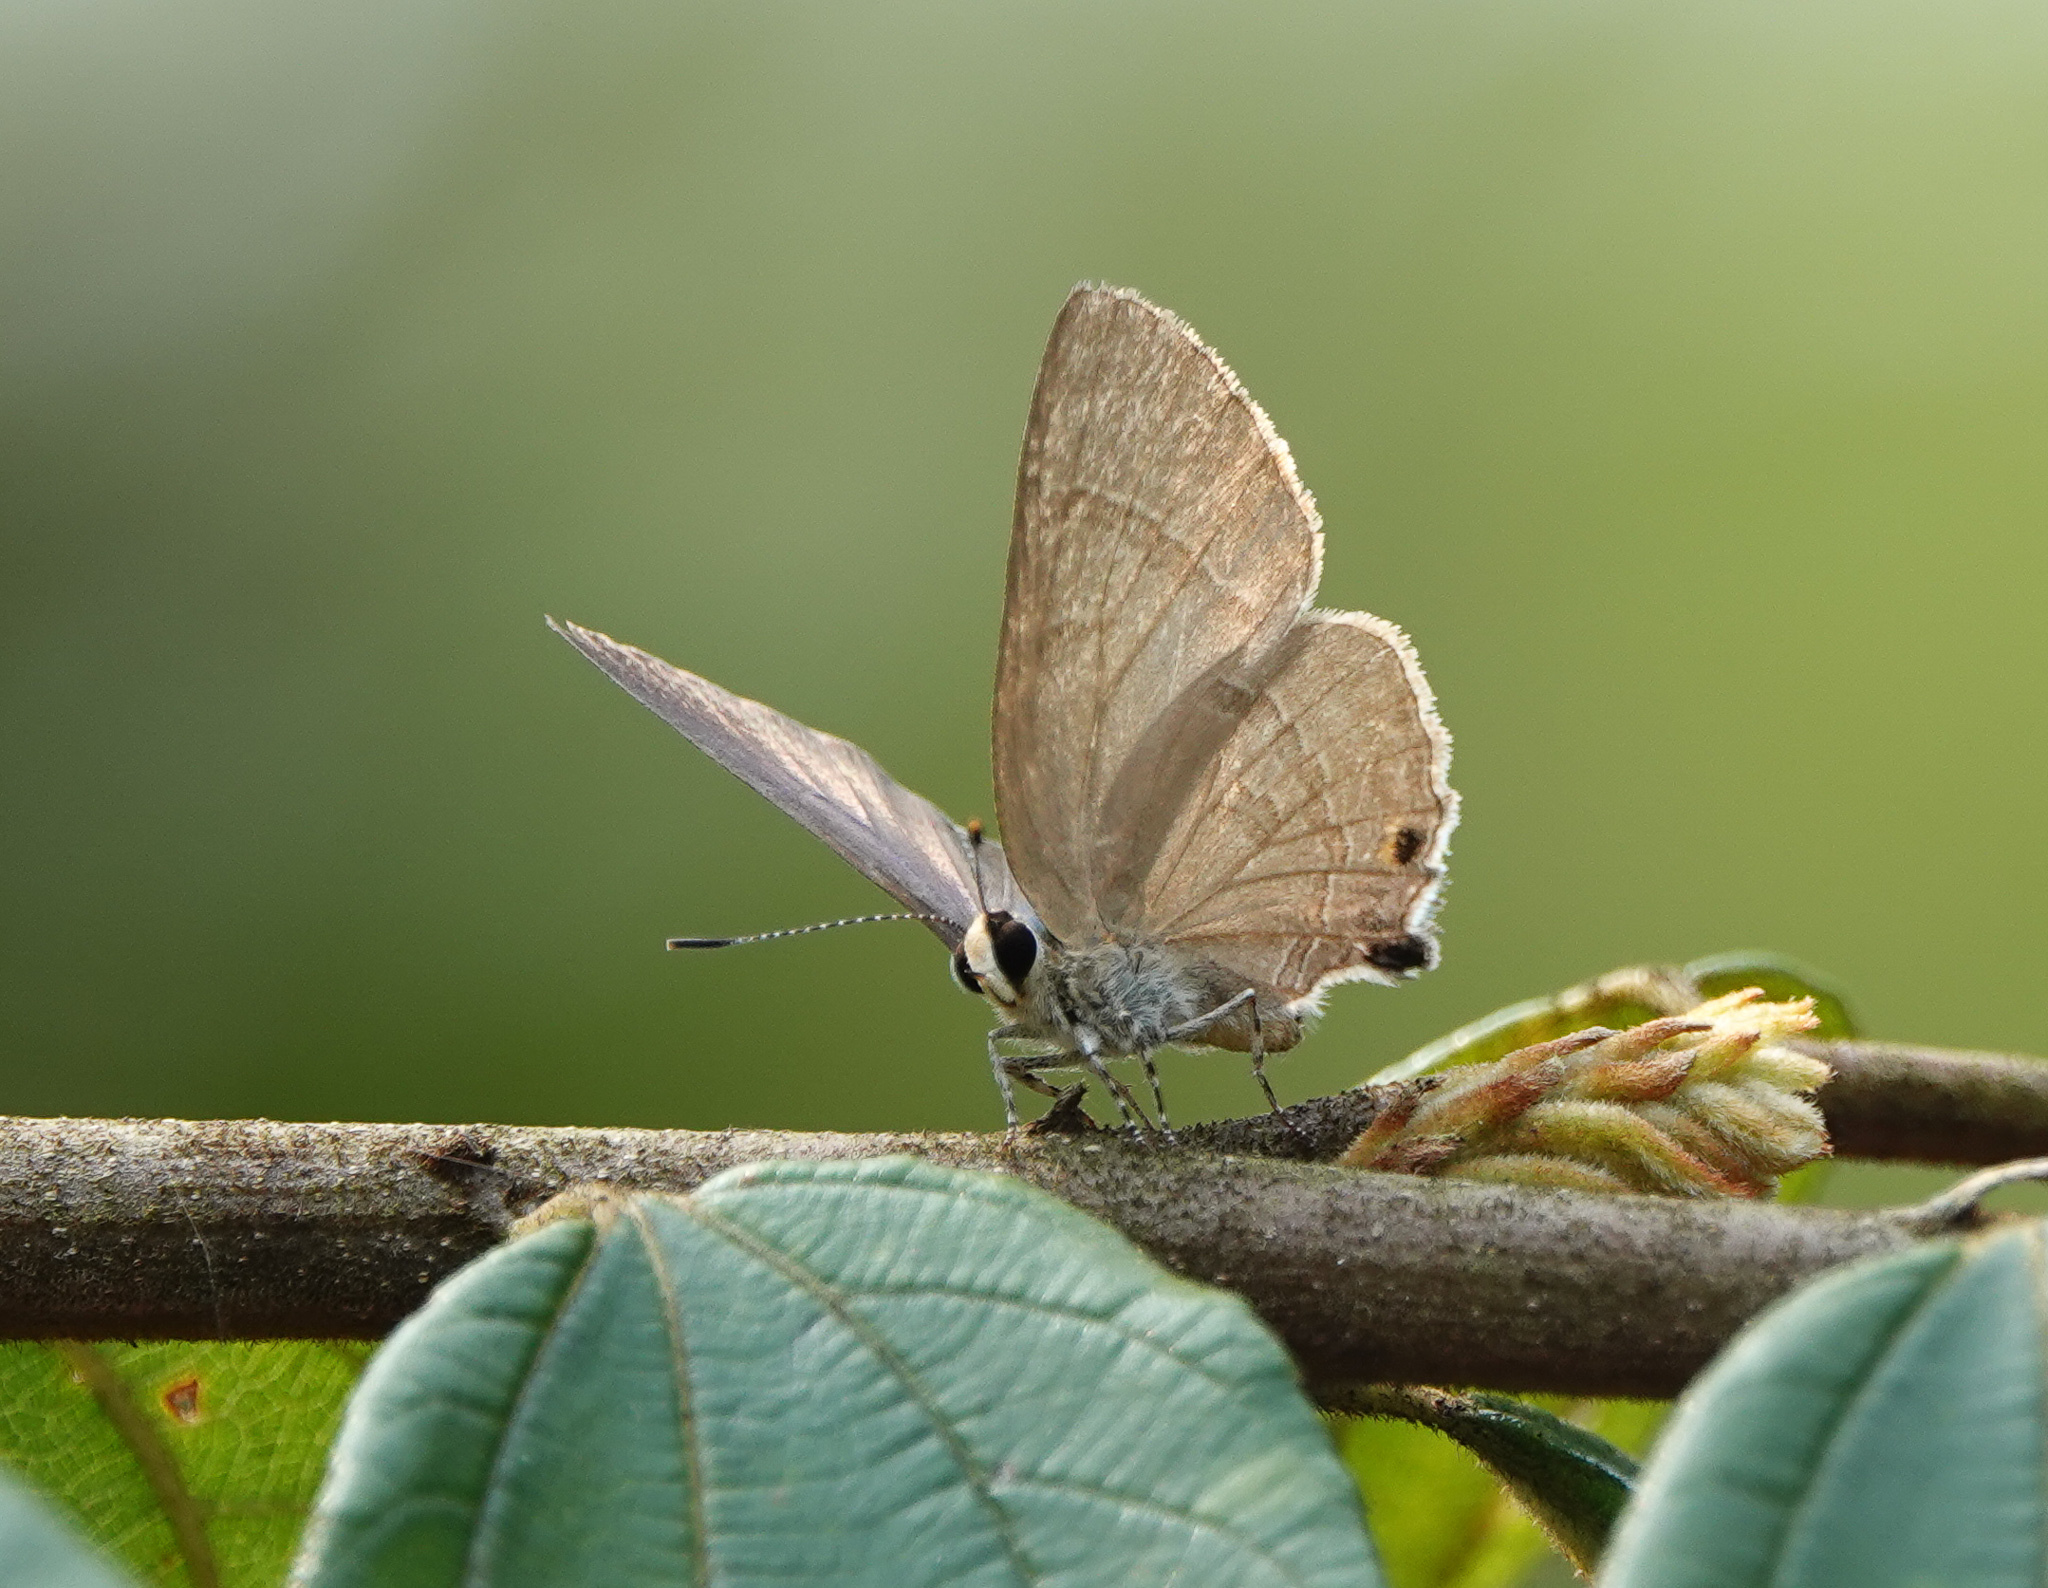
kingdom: Animalia
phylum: Arthropoda
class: Insecta
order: Lepidoptera
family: Lycaenidae
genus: Rapala
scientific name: Rapala manea
